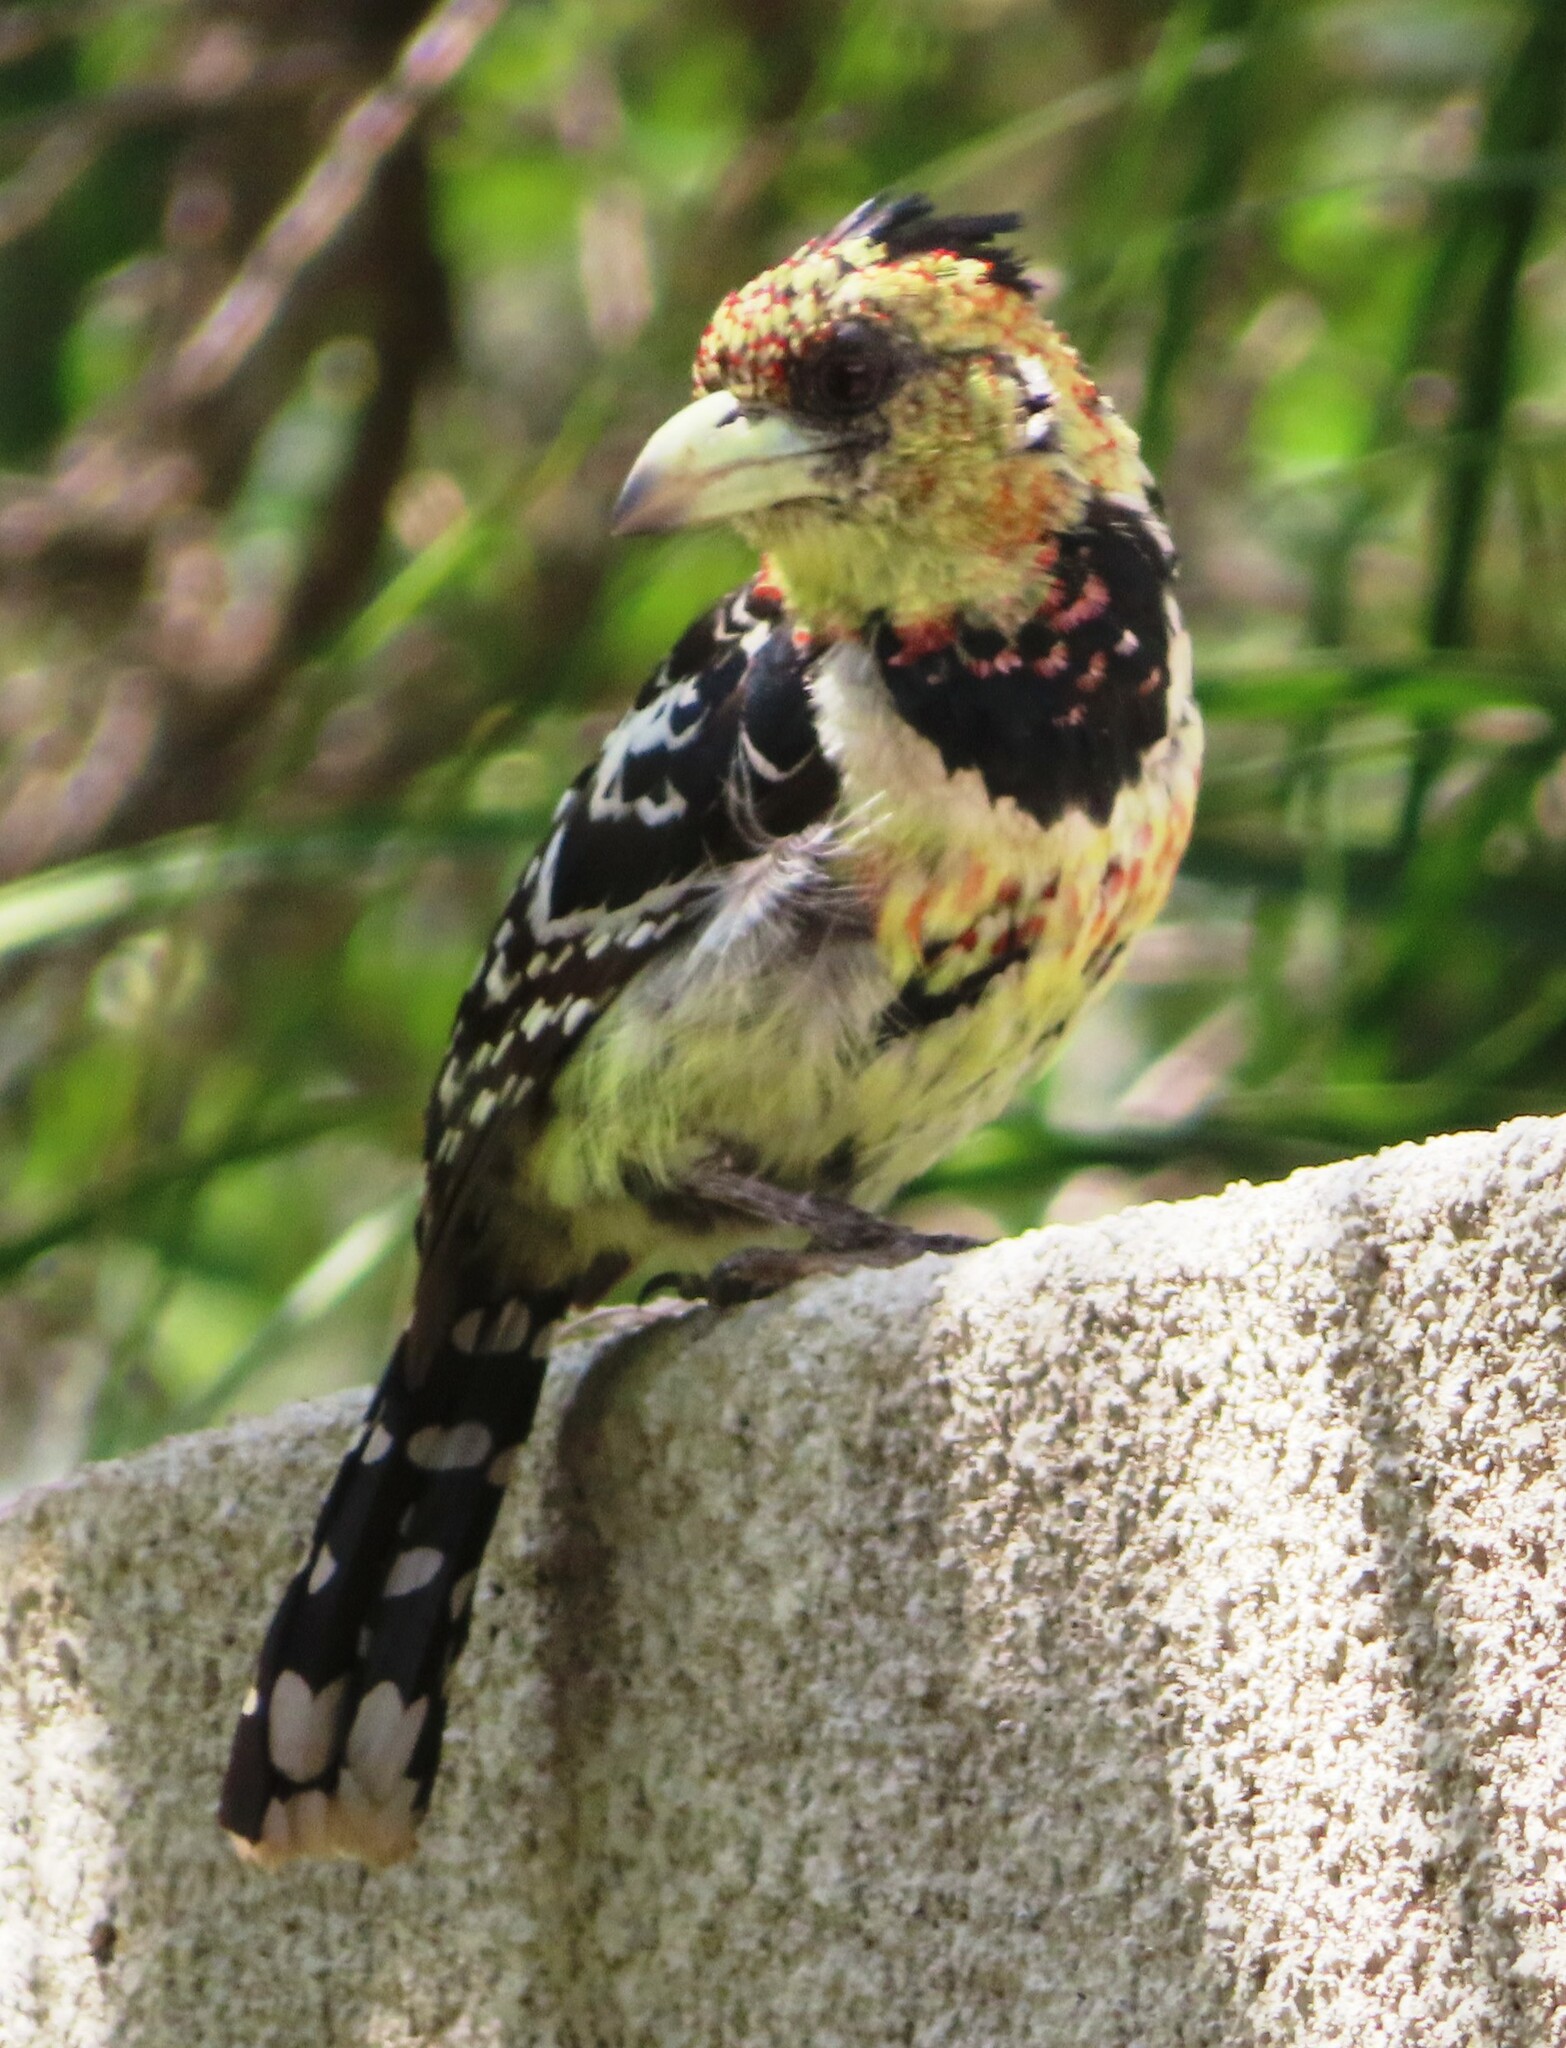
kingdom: Animalia
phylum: Chordata
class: Aves
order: Piciformes
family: Lybiidae
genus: Trachyphonus
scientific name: Trachyphonus vaillantii
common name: Crested barbet
